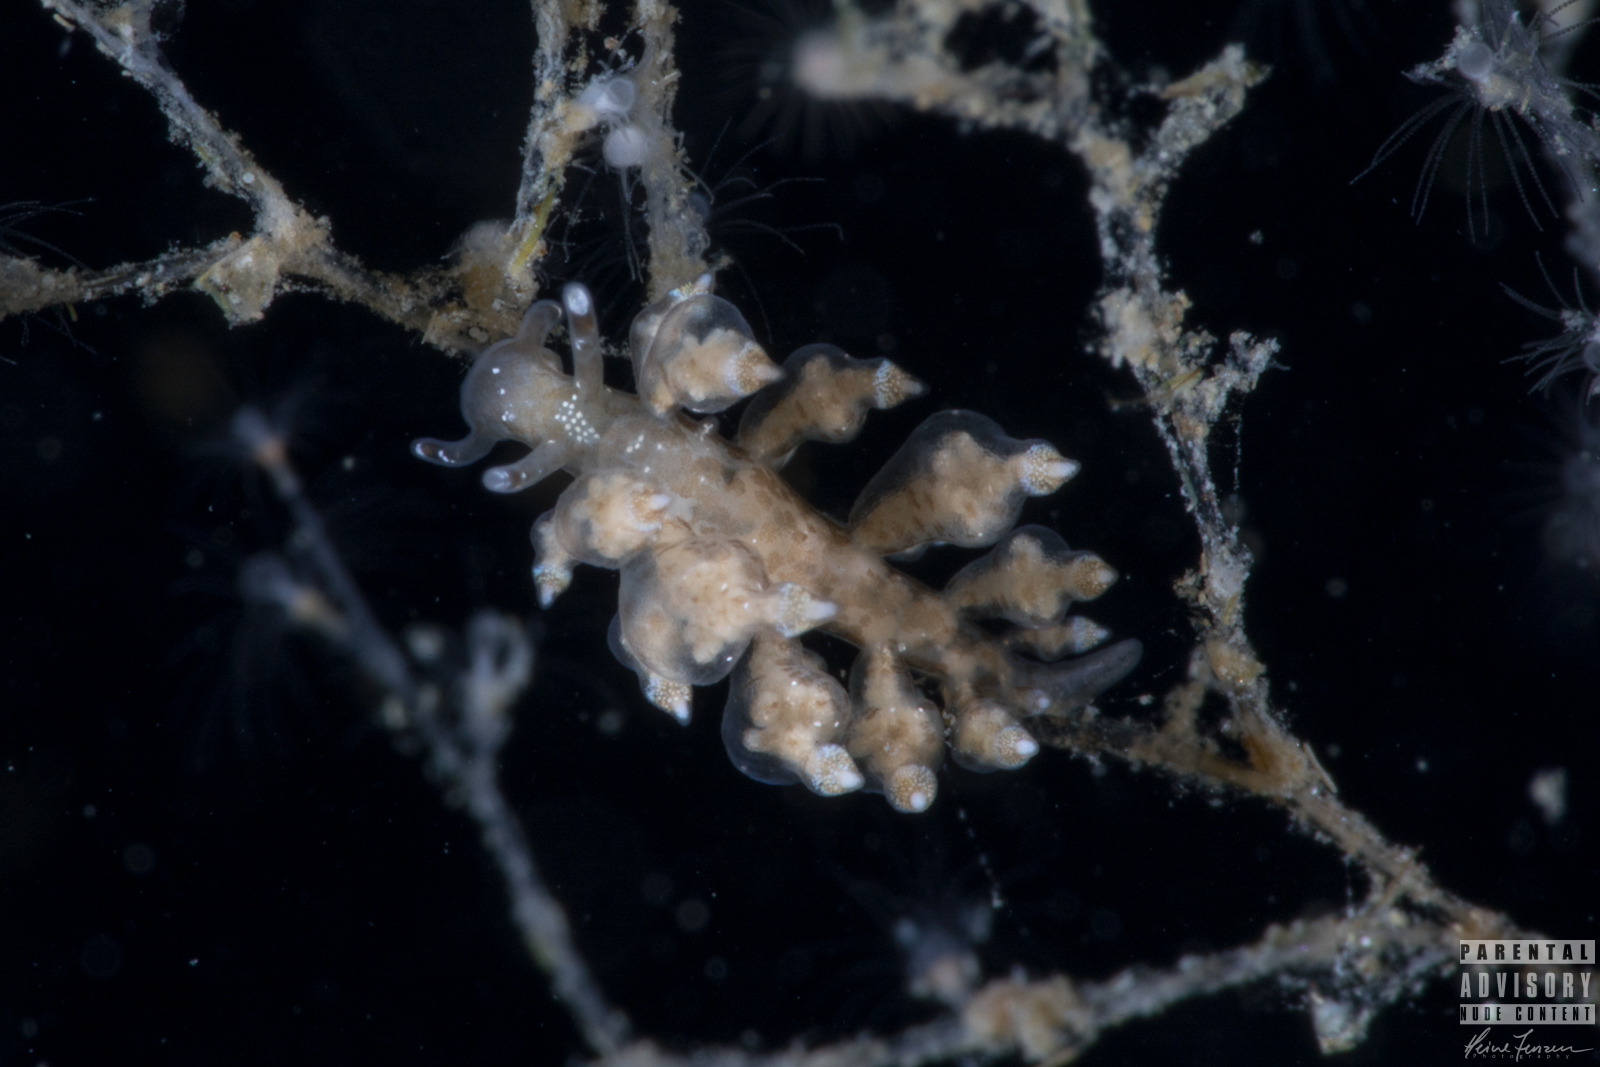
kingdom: Animalia
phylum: Mollusca
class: Gastropoda
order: Nudibranchia
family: Eubranchidae
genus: Eubranchus
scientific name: Eubranchus scintillans
